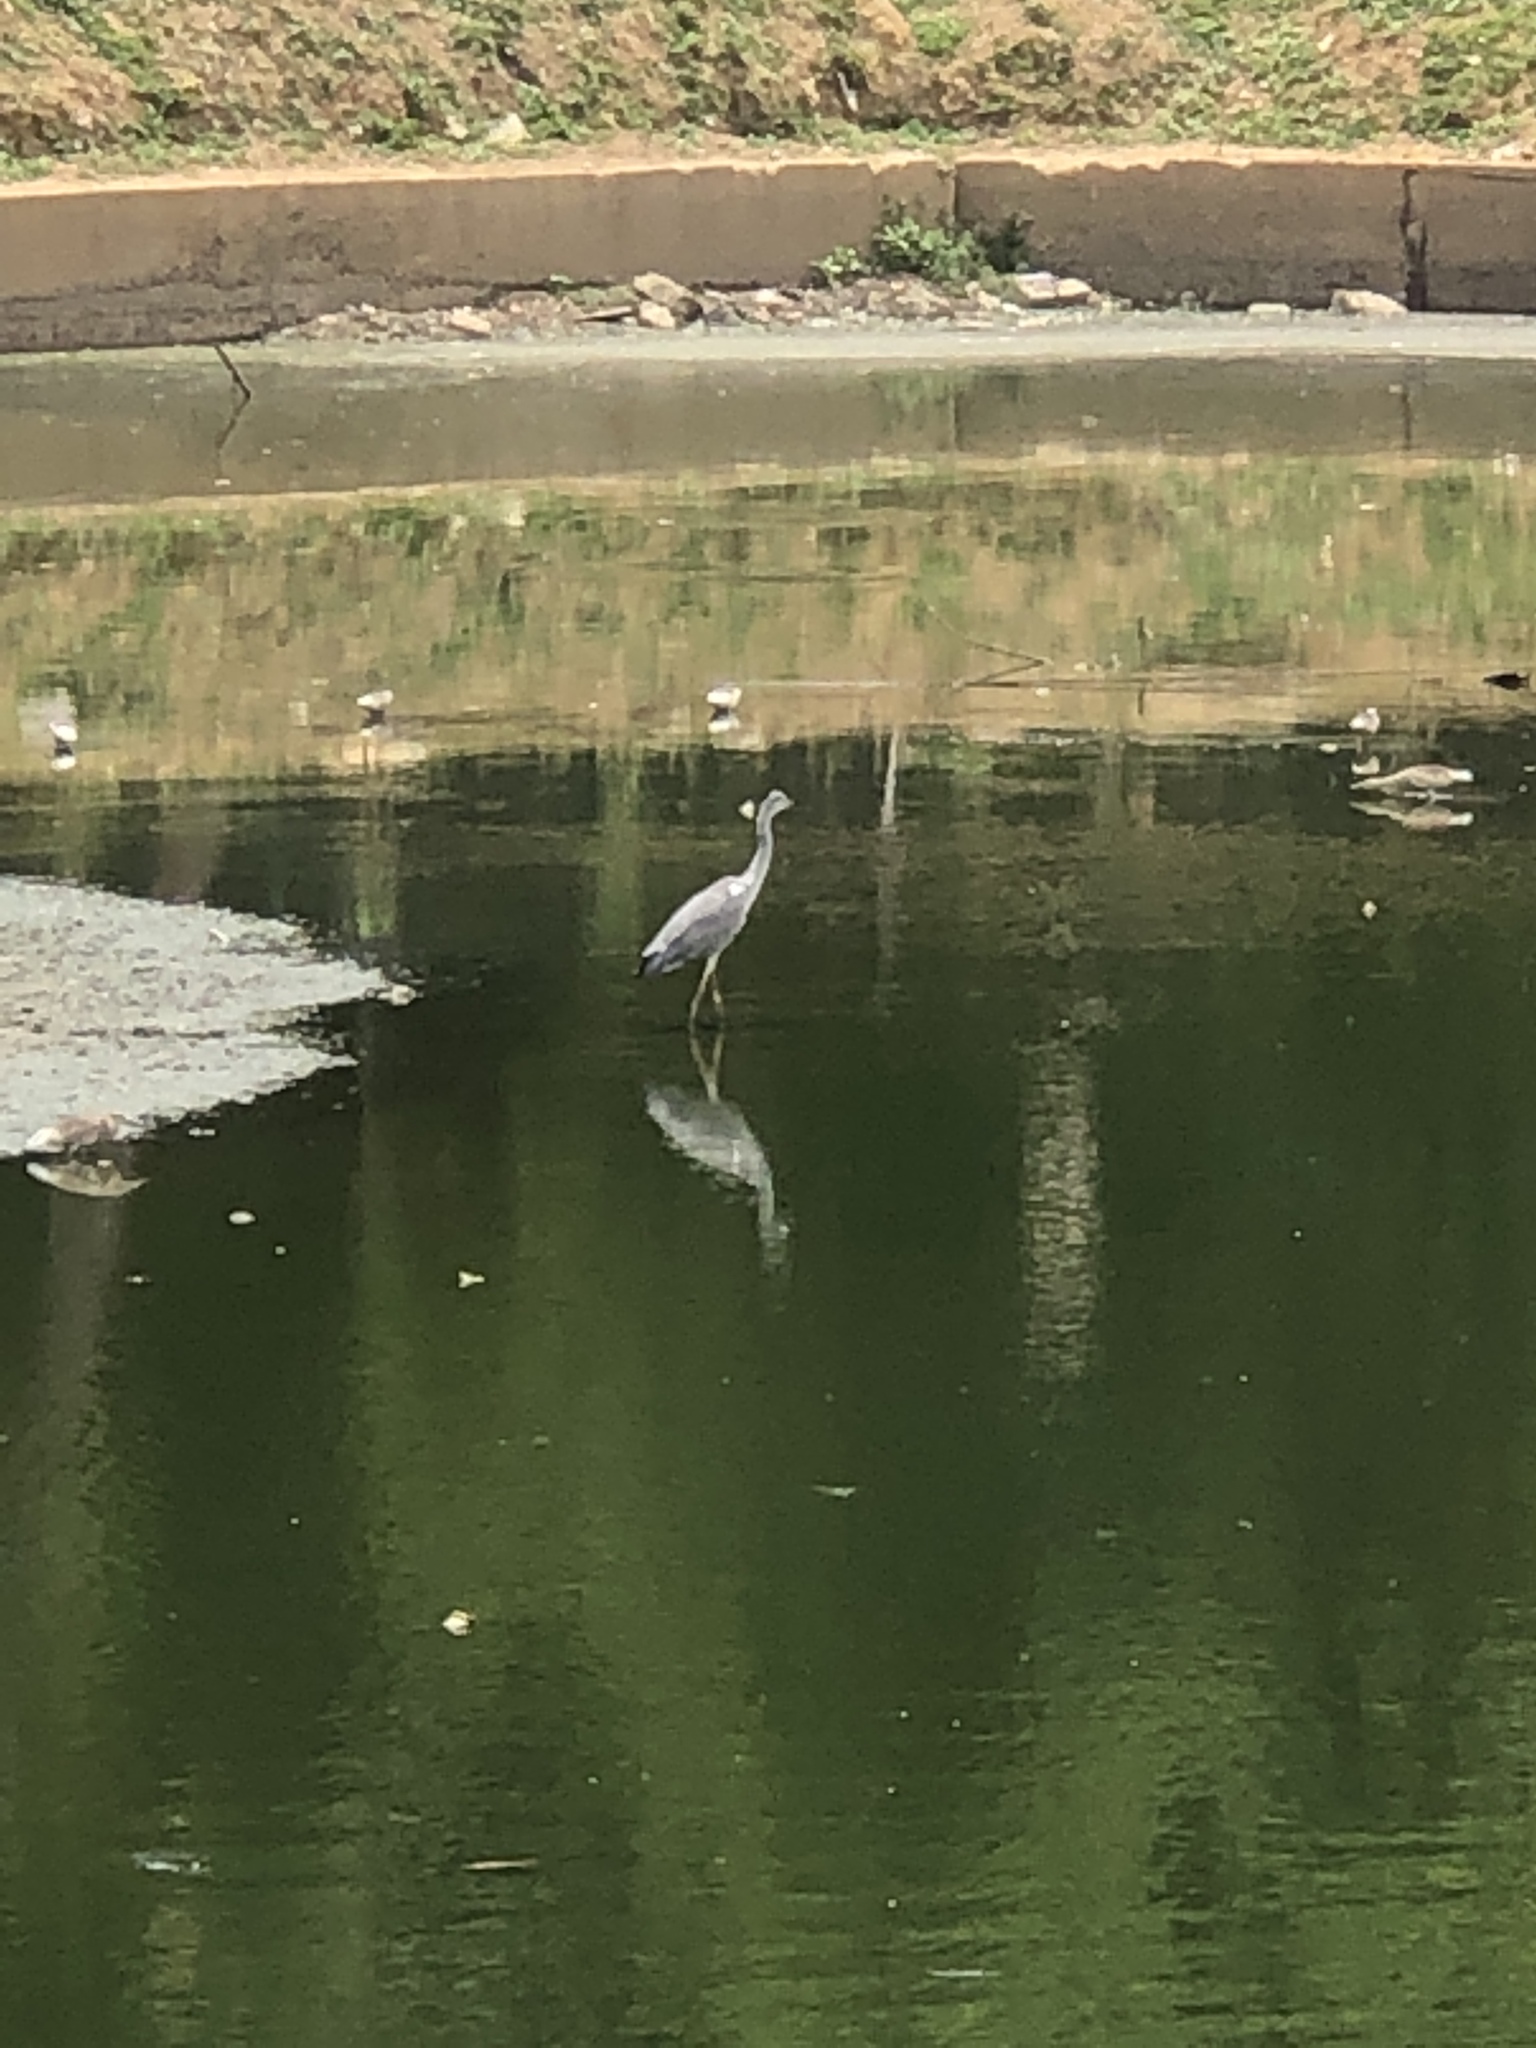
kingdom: Animalia
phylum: Chordata
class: Aves
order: Pelecaniformes
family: Ardeidae
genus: Ardea
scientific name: Ardea cinerea
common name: Grey heron
